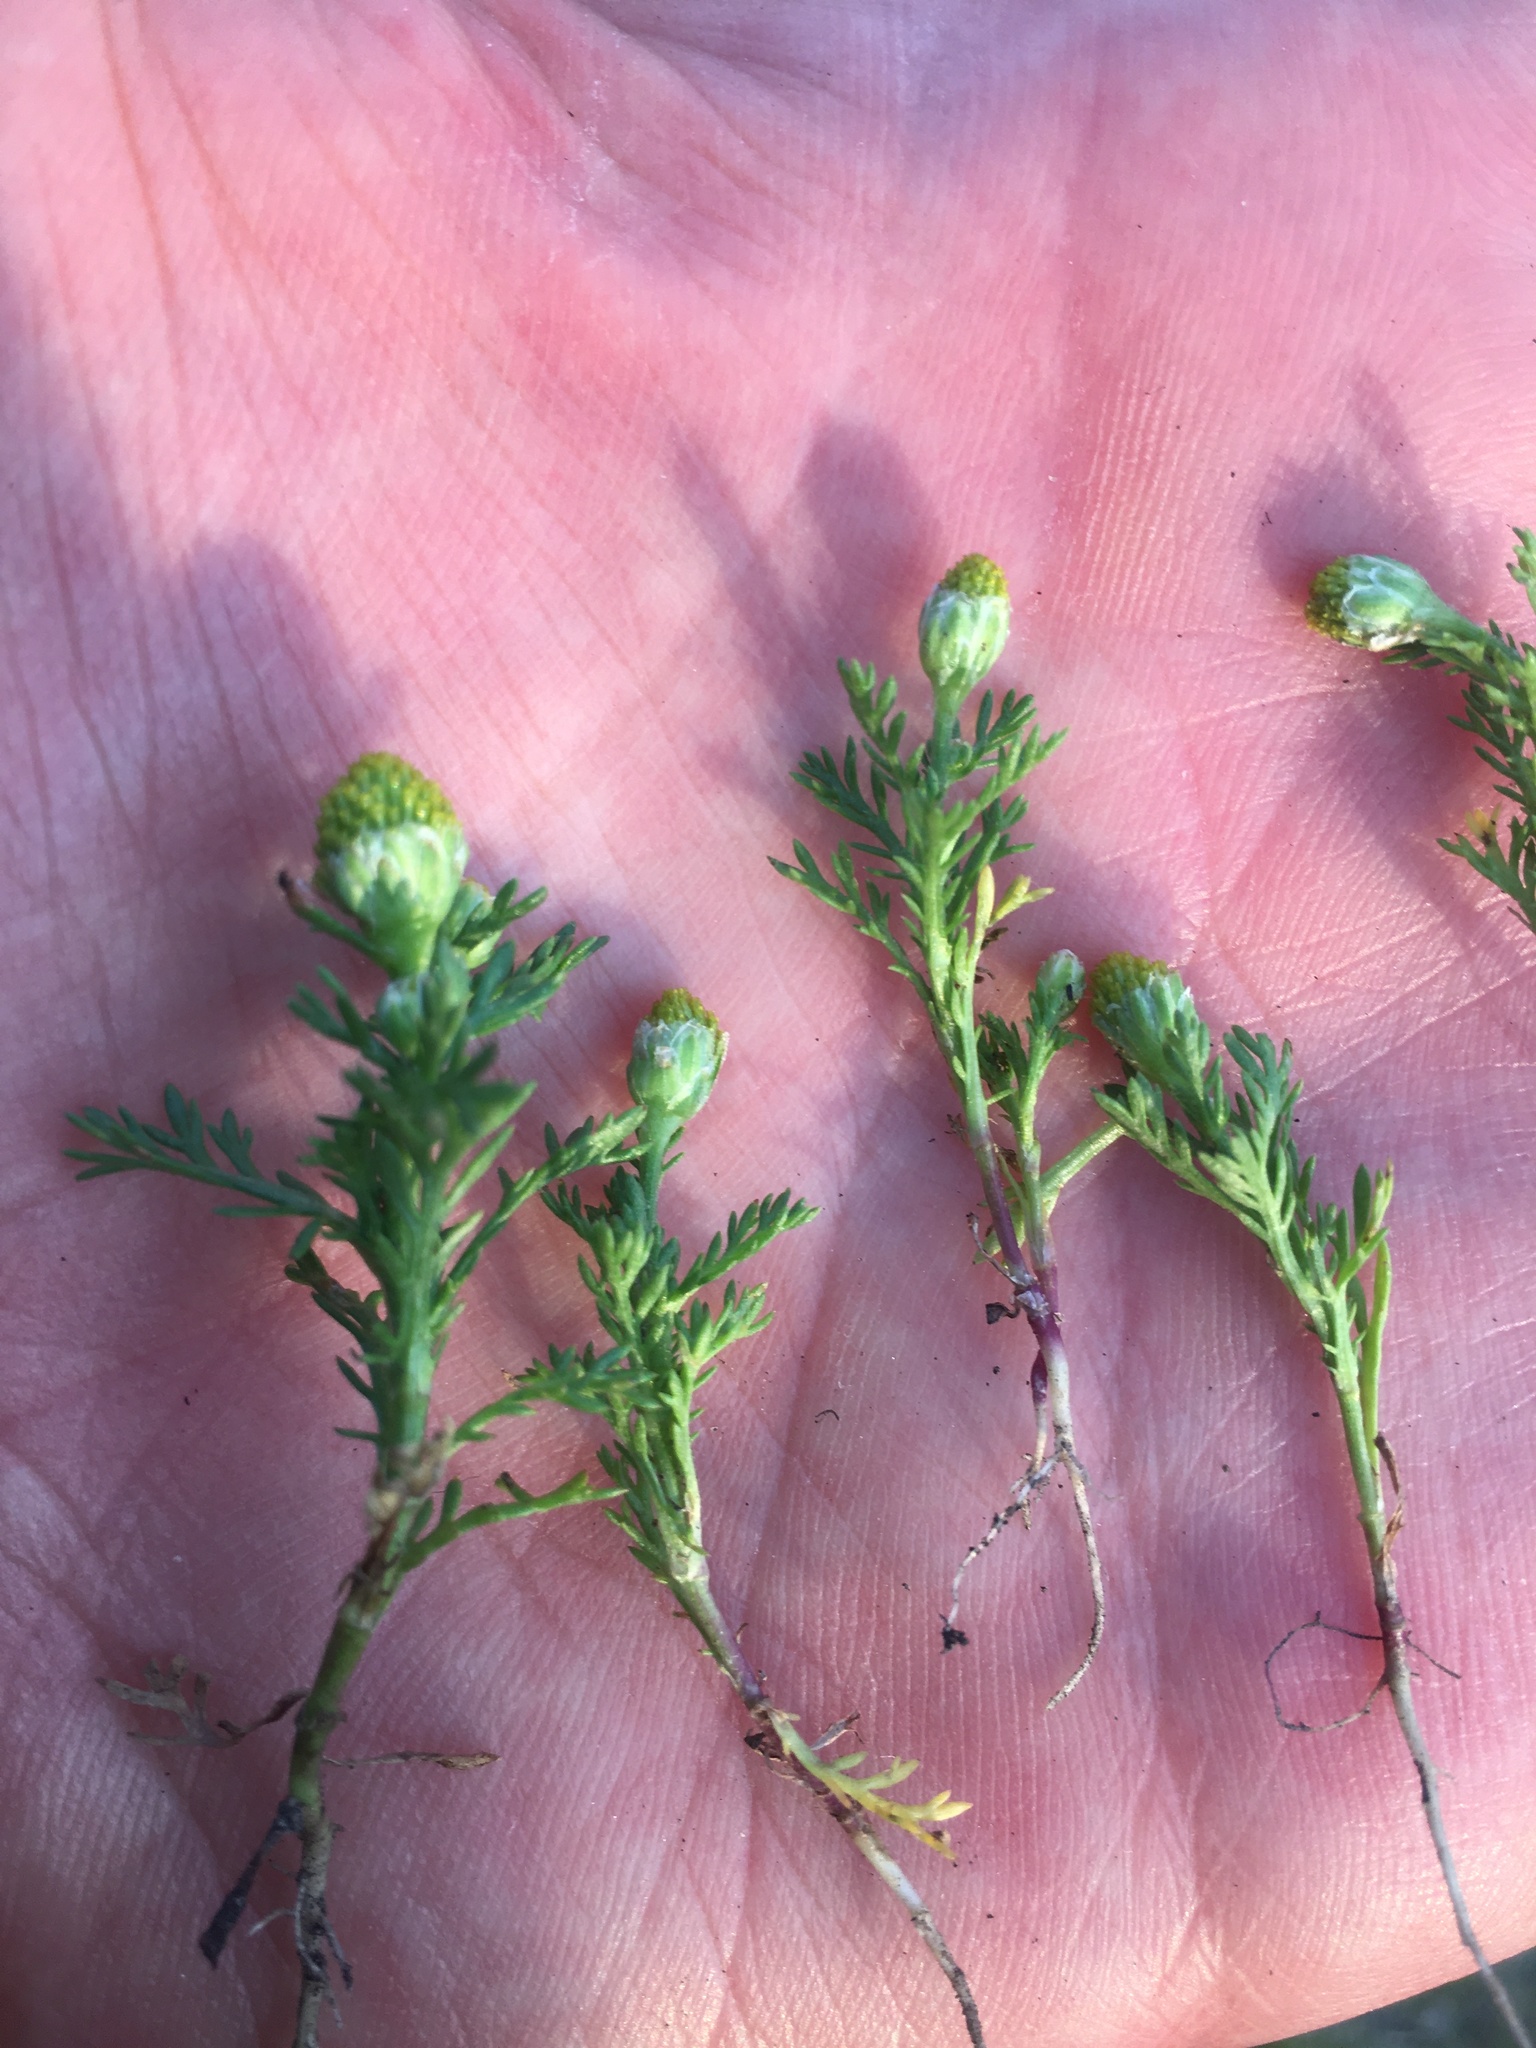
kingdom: Plantae
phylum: Tracheophyta
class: Magnoliopsida
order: Asterales
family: Asteraceae
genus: Matricaria
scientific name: Matricaria discoidea
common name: Disc mayweed
